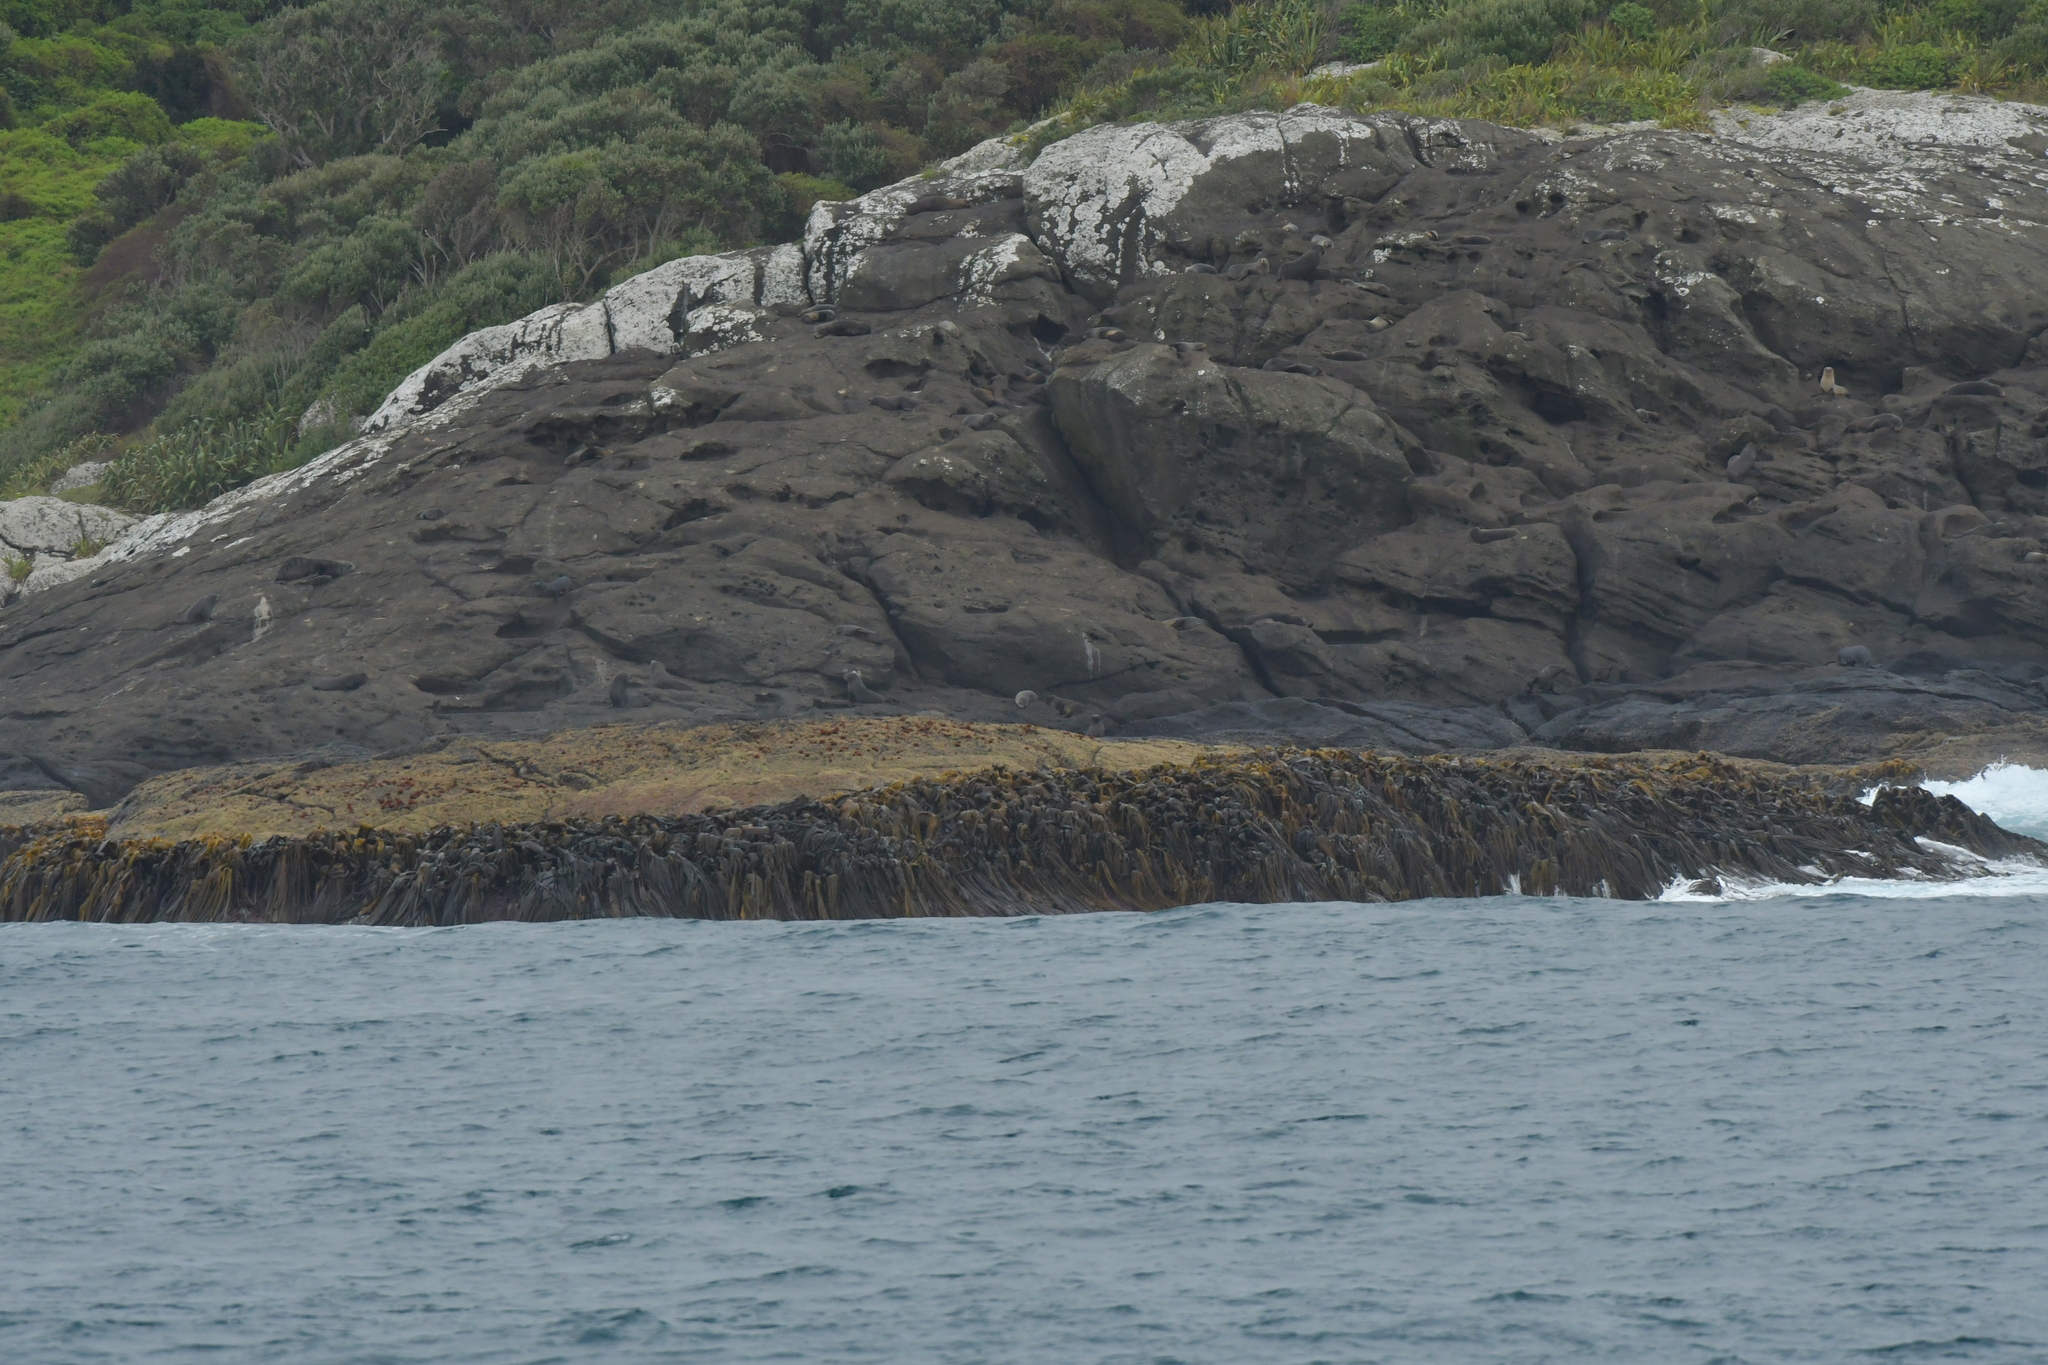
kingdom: Animalia
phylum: Chordata
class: Mammalia
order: Carnivora
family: Otariidae
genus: Arctocephalus
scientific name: Arctocephalus forsteri
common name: New zealand fur seal
